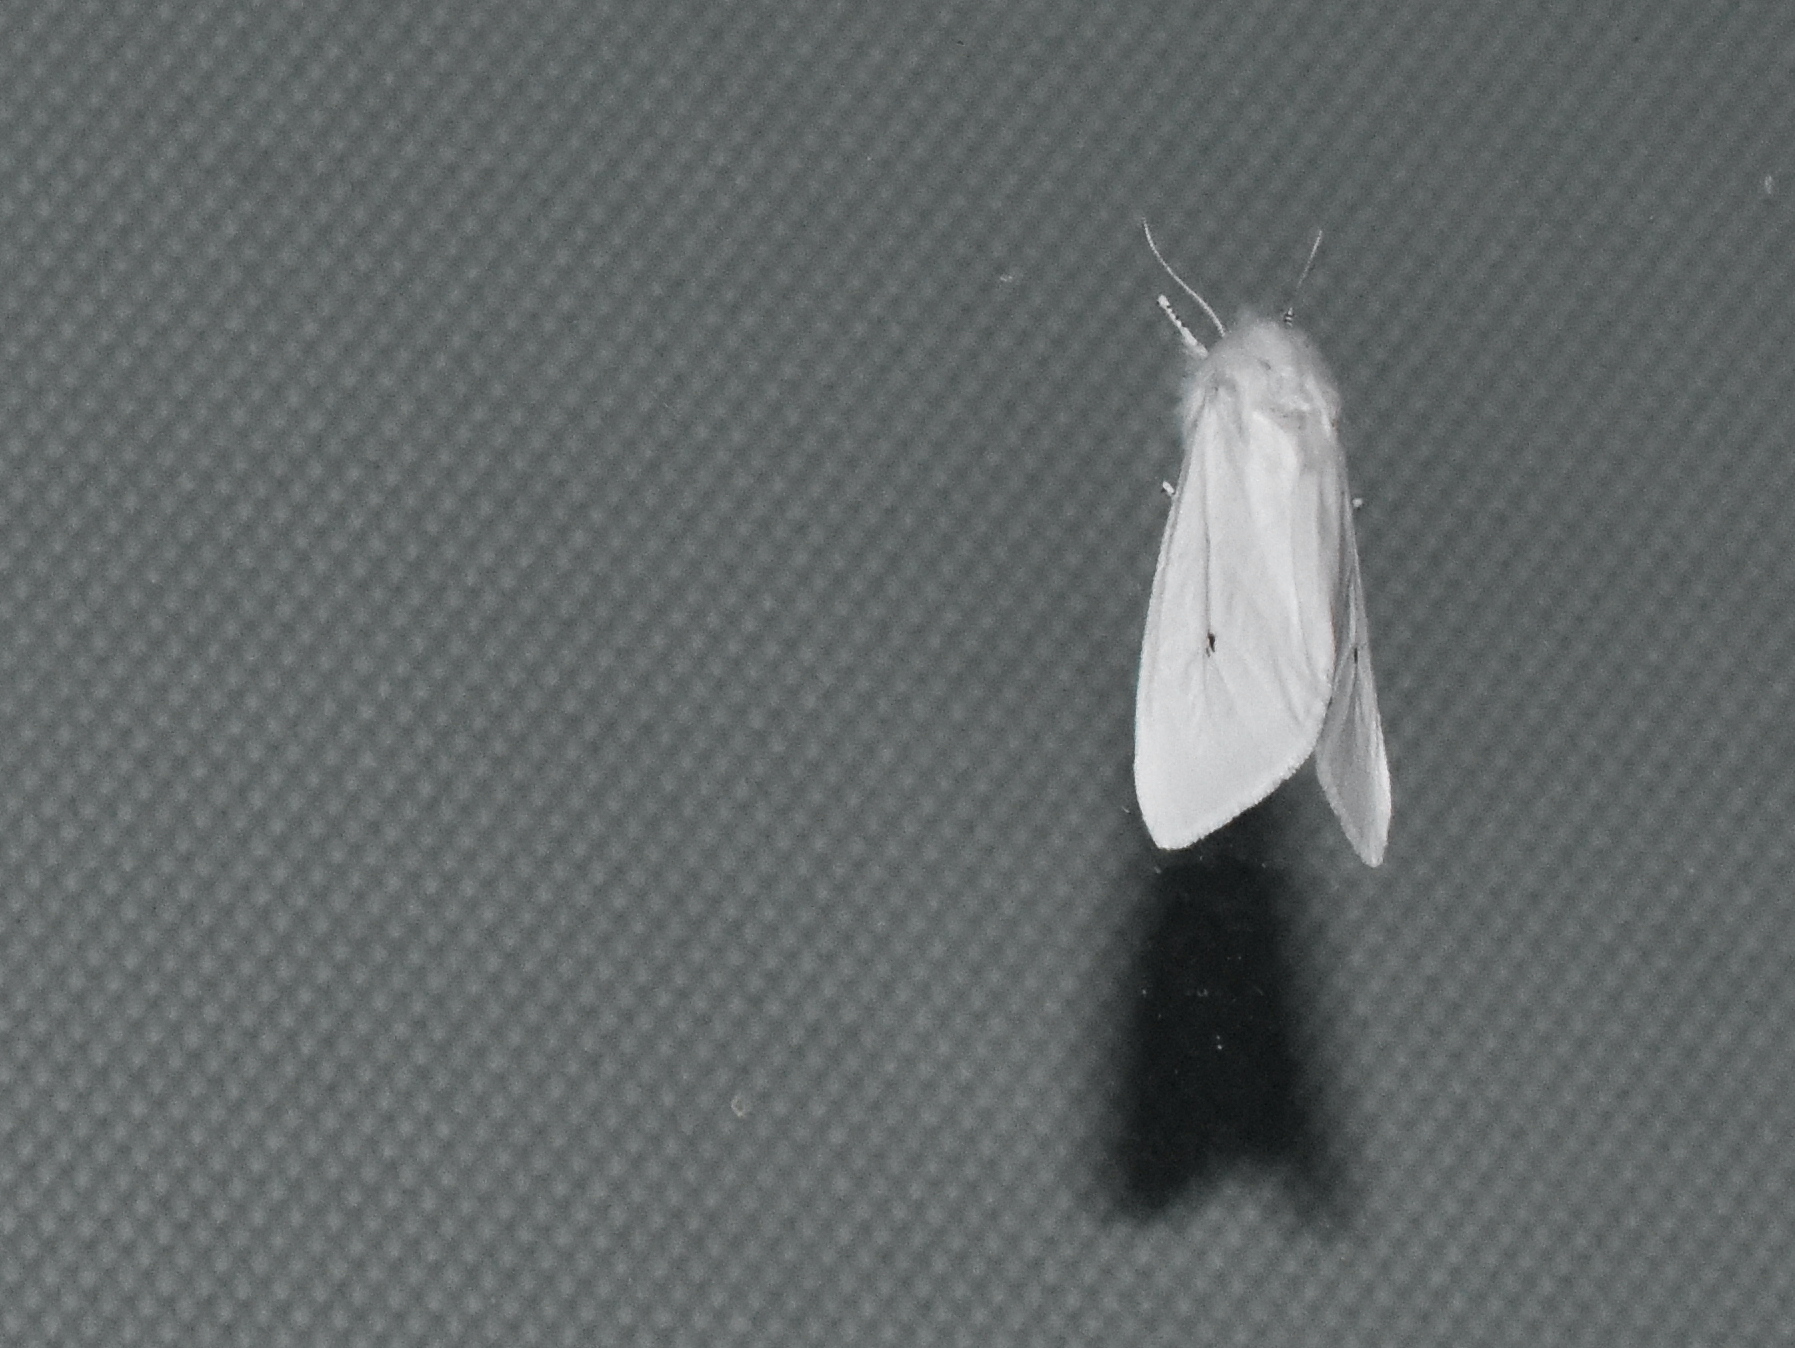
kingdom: Animalia
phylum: Arthropoda
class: Insecta
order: Lepidoptera
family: Erebidae
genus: Spilosoma
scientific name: Spilosoma virginica
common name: Virginia tiger moth
